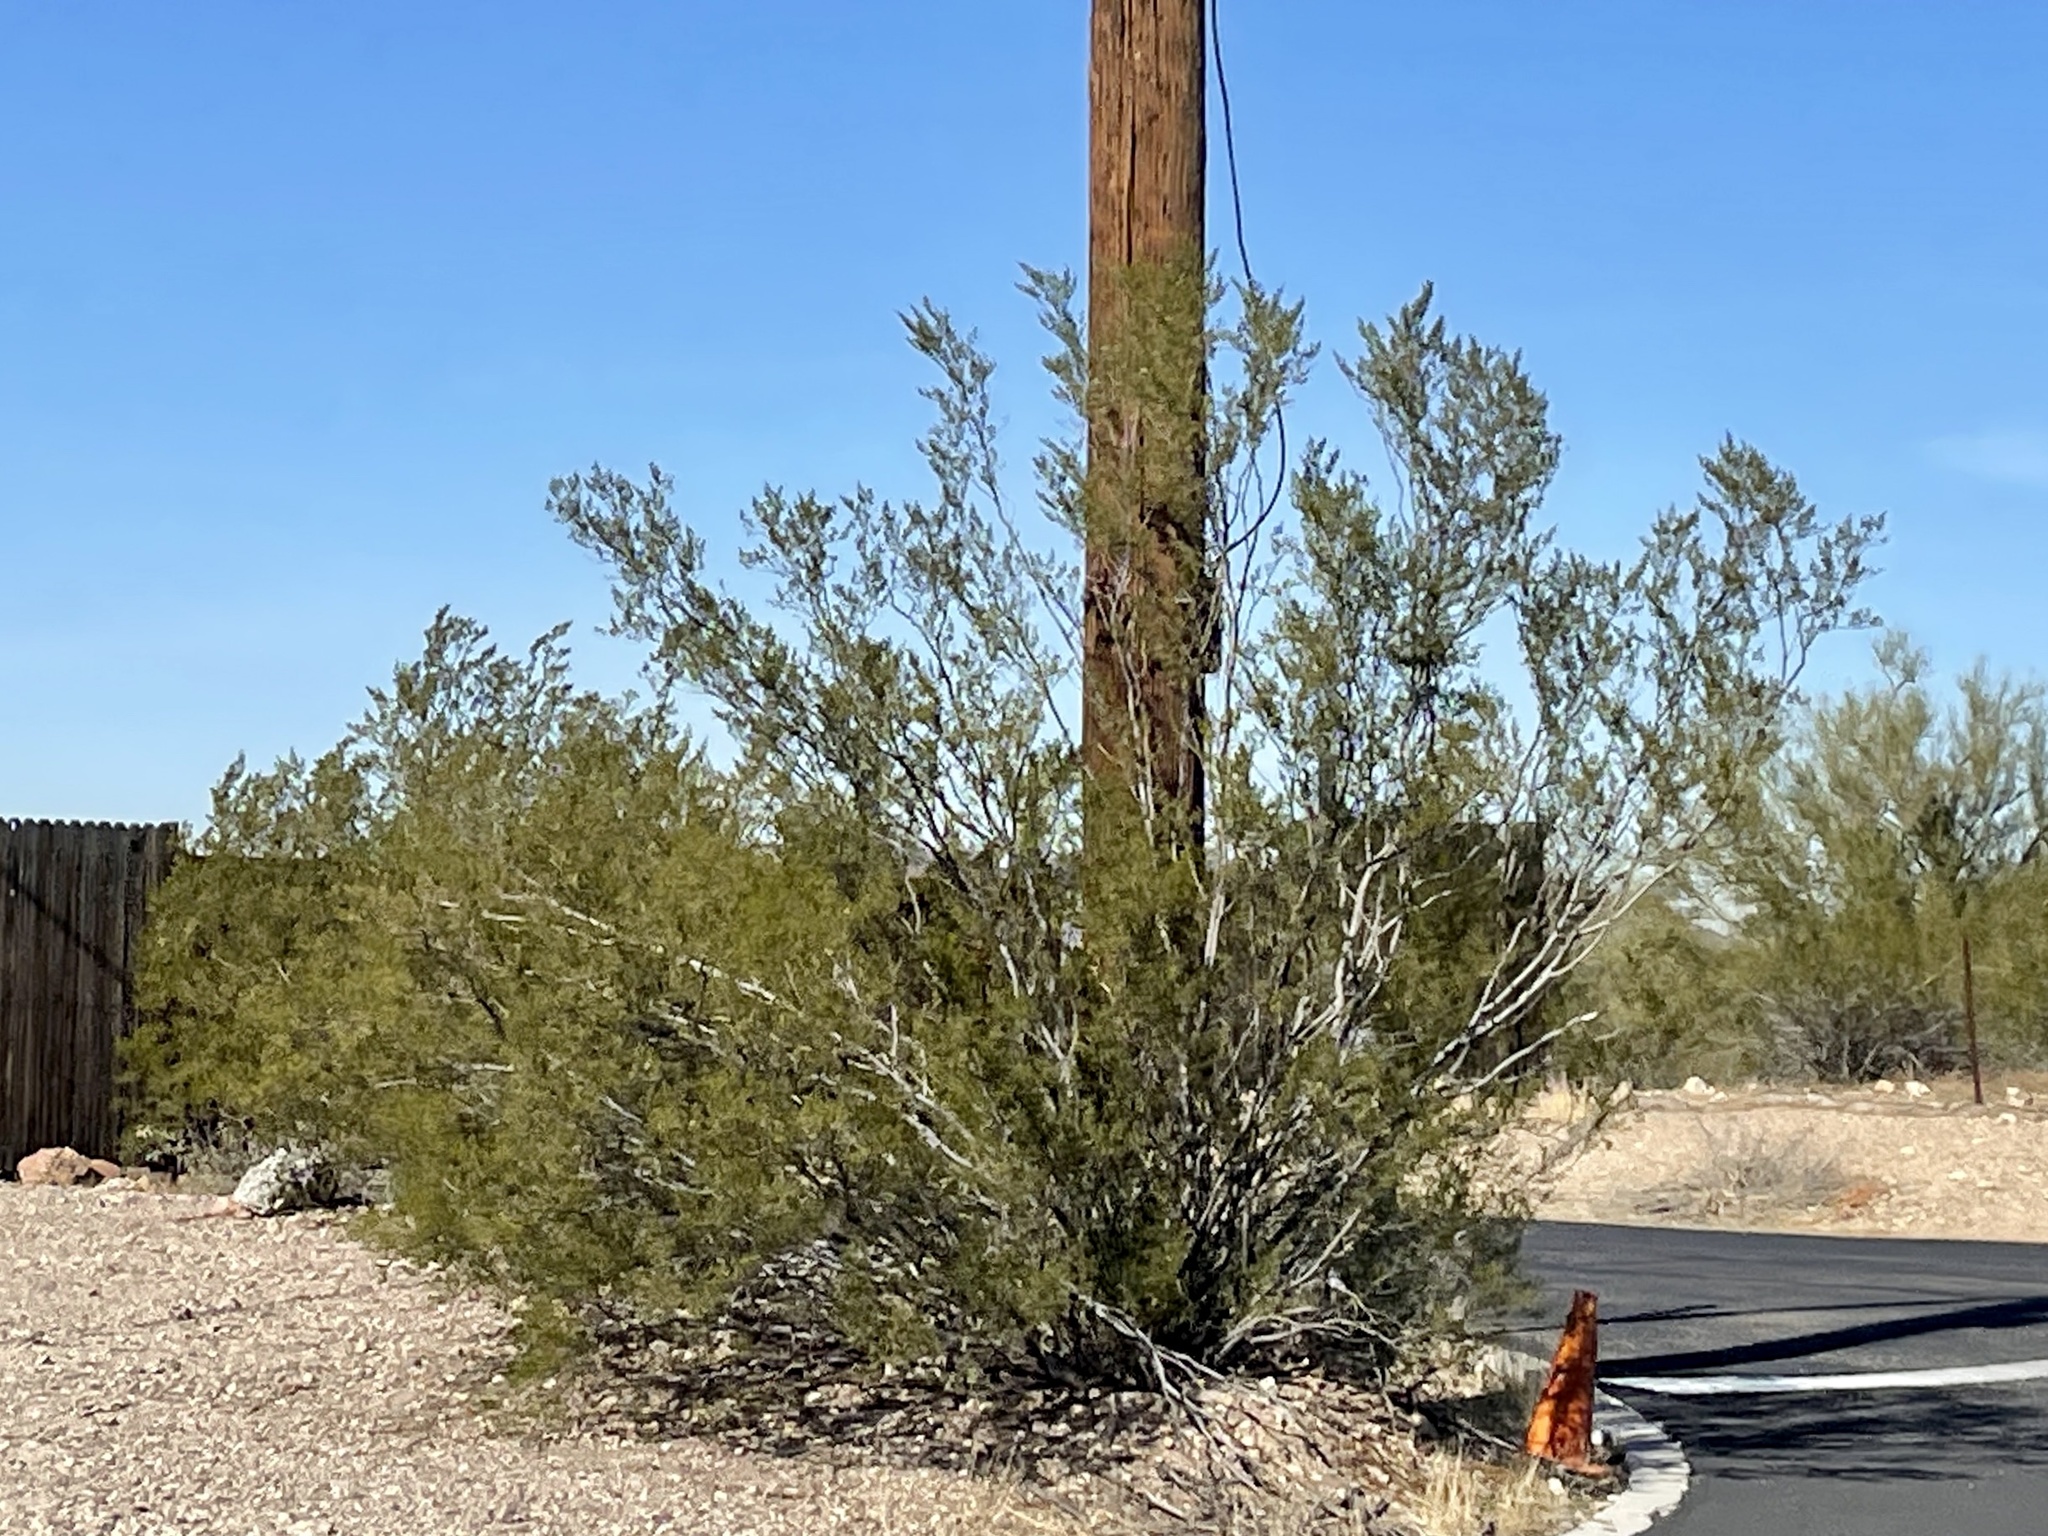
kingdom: Plantae
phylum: Tracheophyta
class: Magnoliopsida
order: Zygophyllales
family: Zygophyllaceae
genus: Larrea
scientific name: Larrea tridentata
